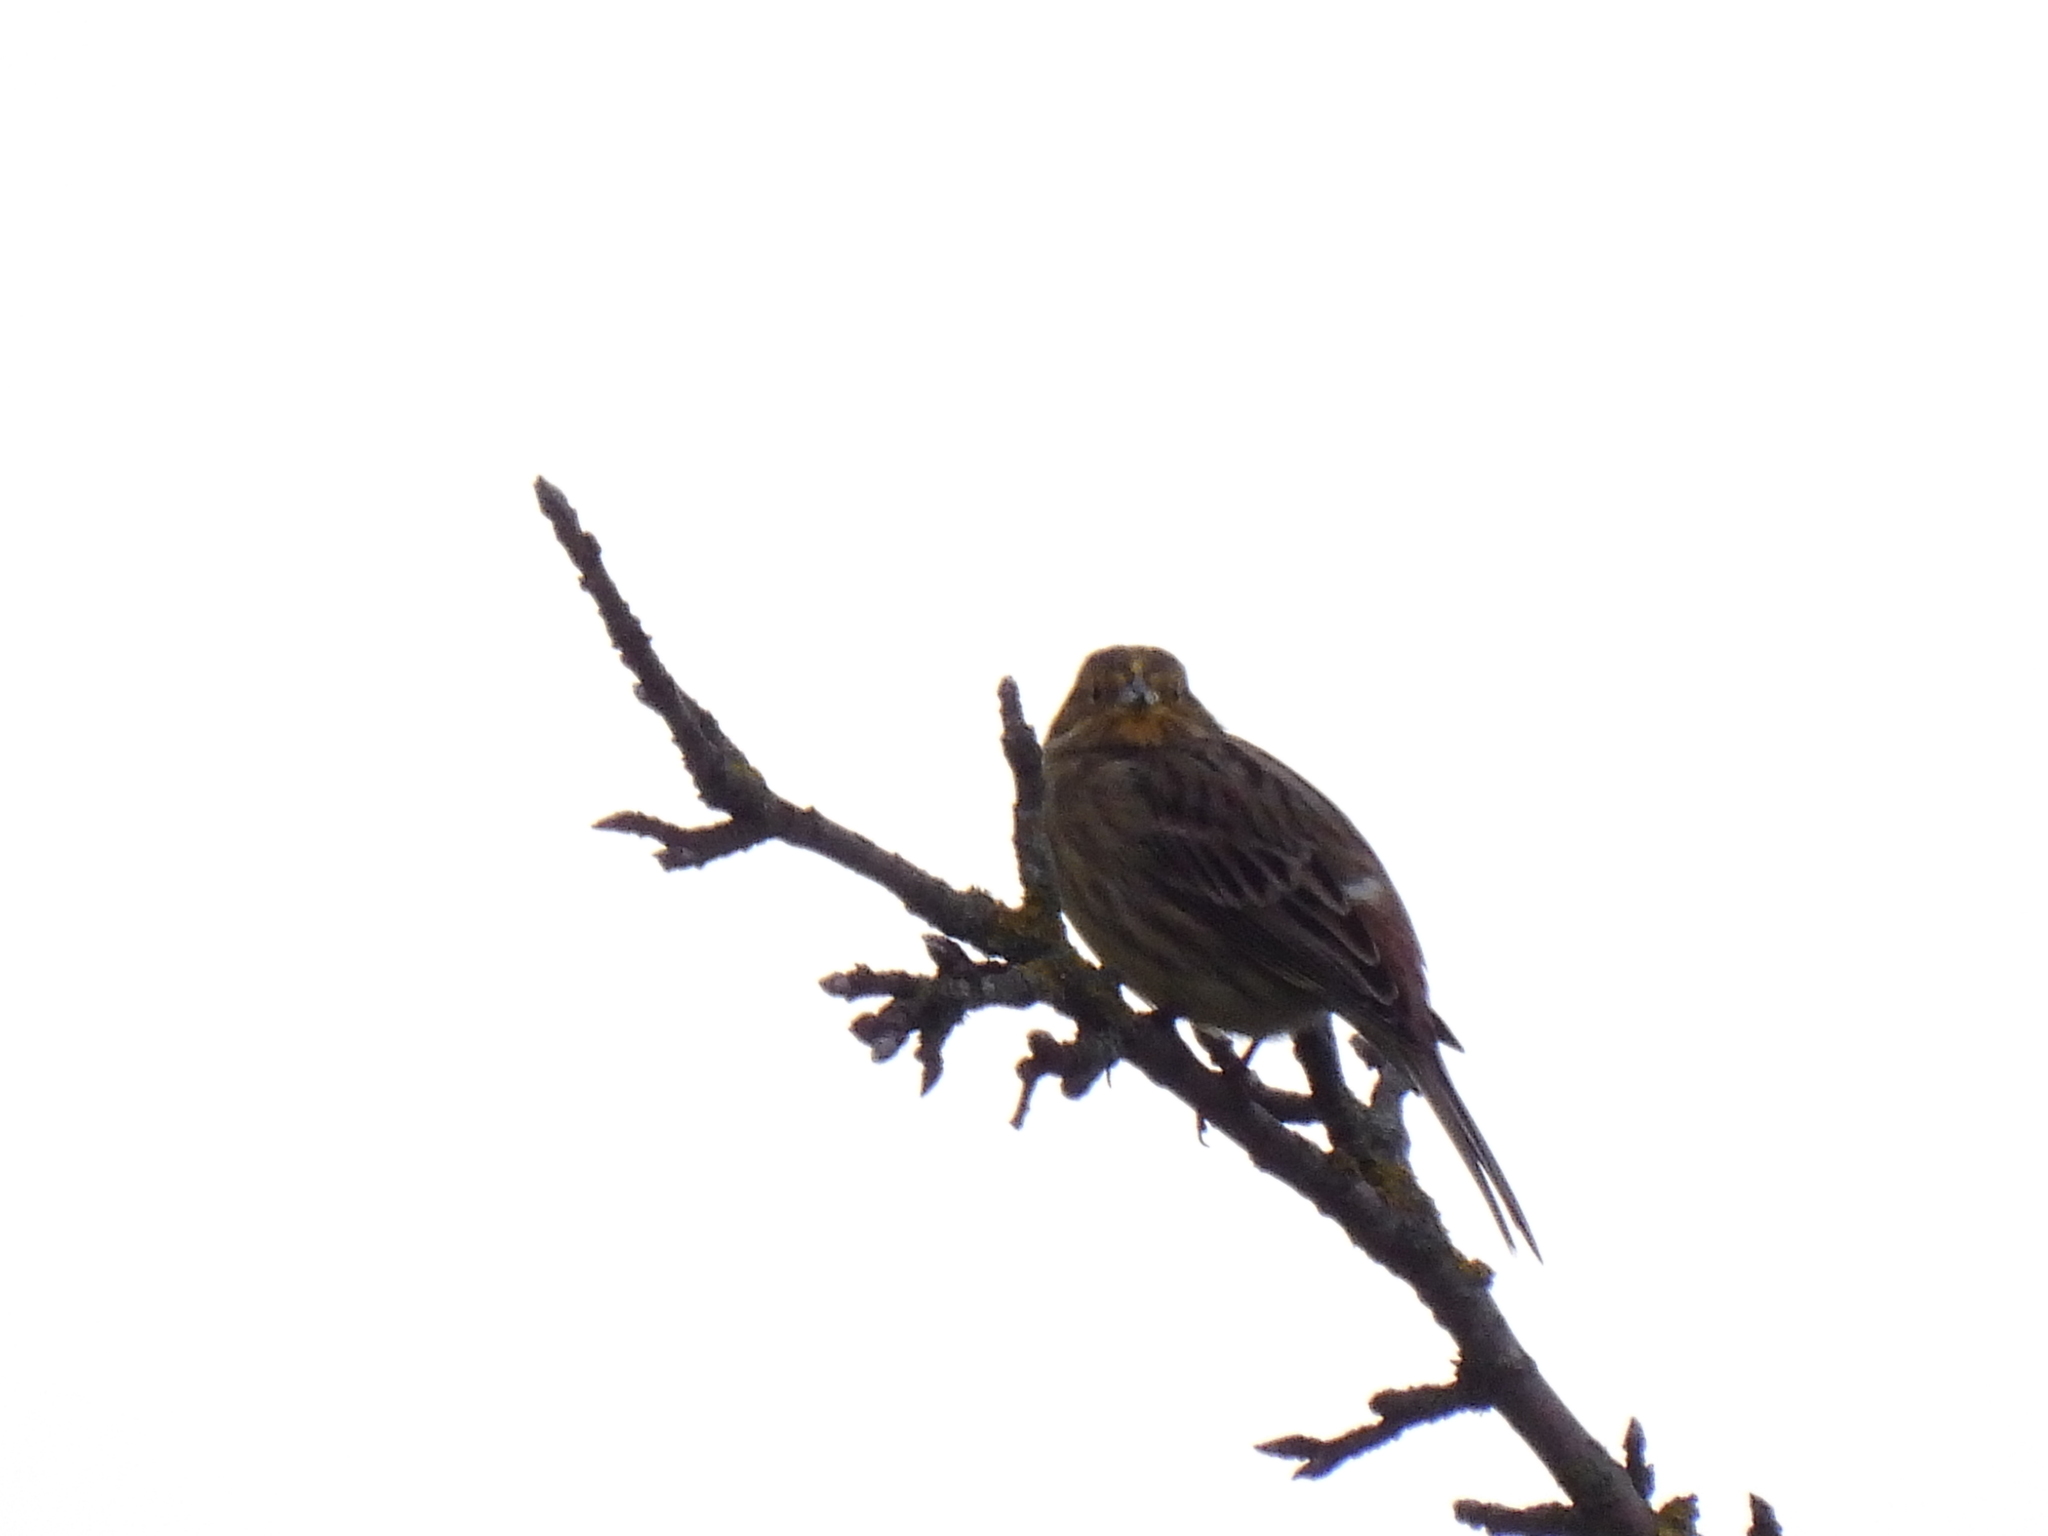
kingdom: Animalia
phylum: Chordata
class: Aves
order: Passeriformes
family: Emberizidae
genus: Emberiza
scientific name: Emberiza citrinella
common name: Yellowhammer
